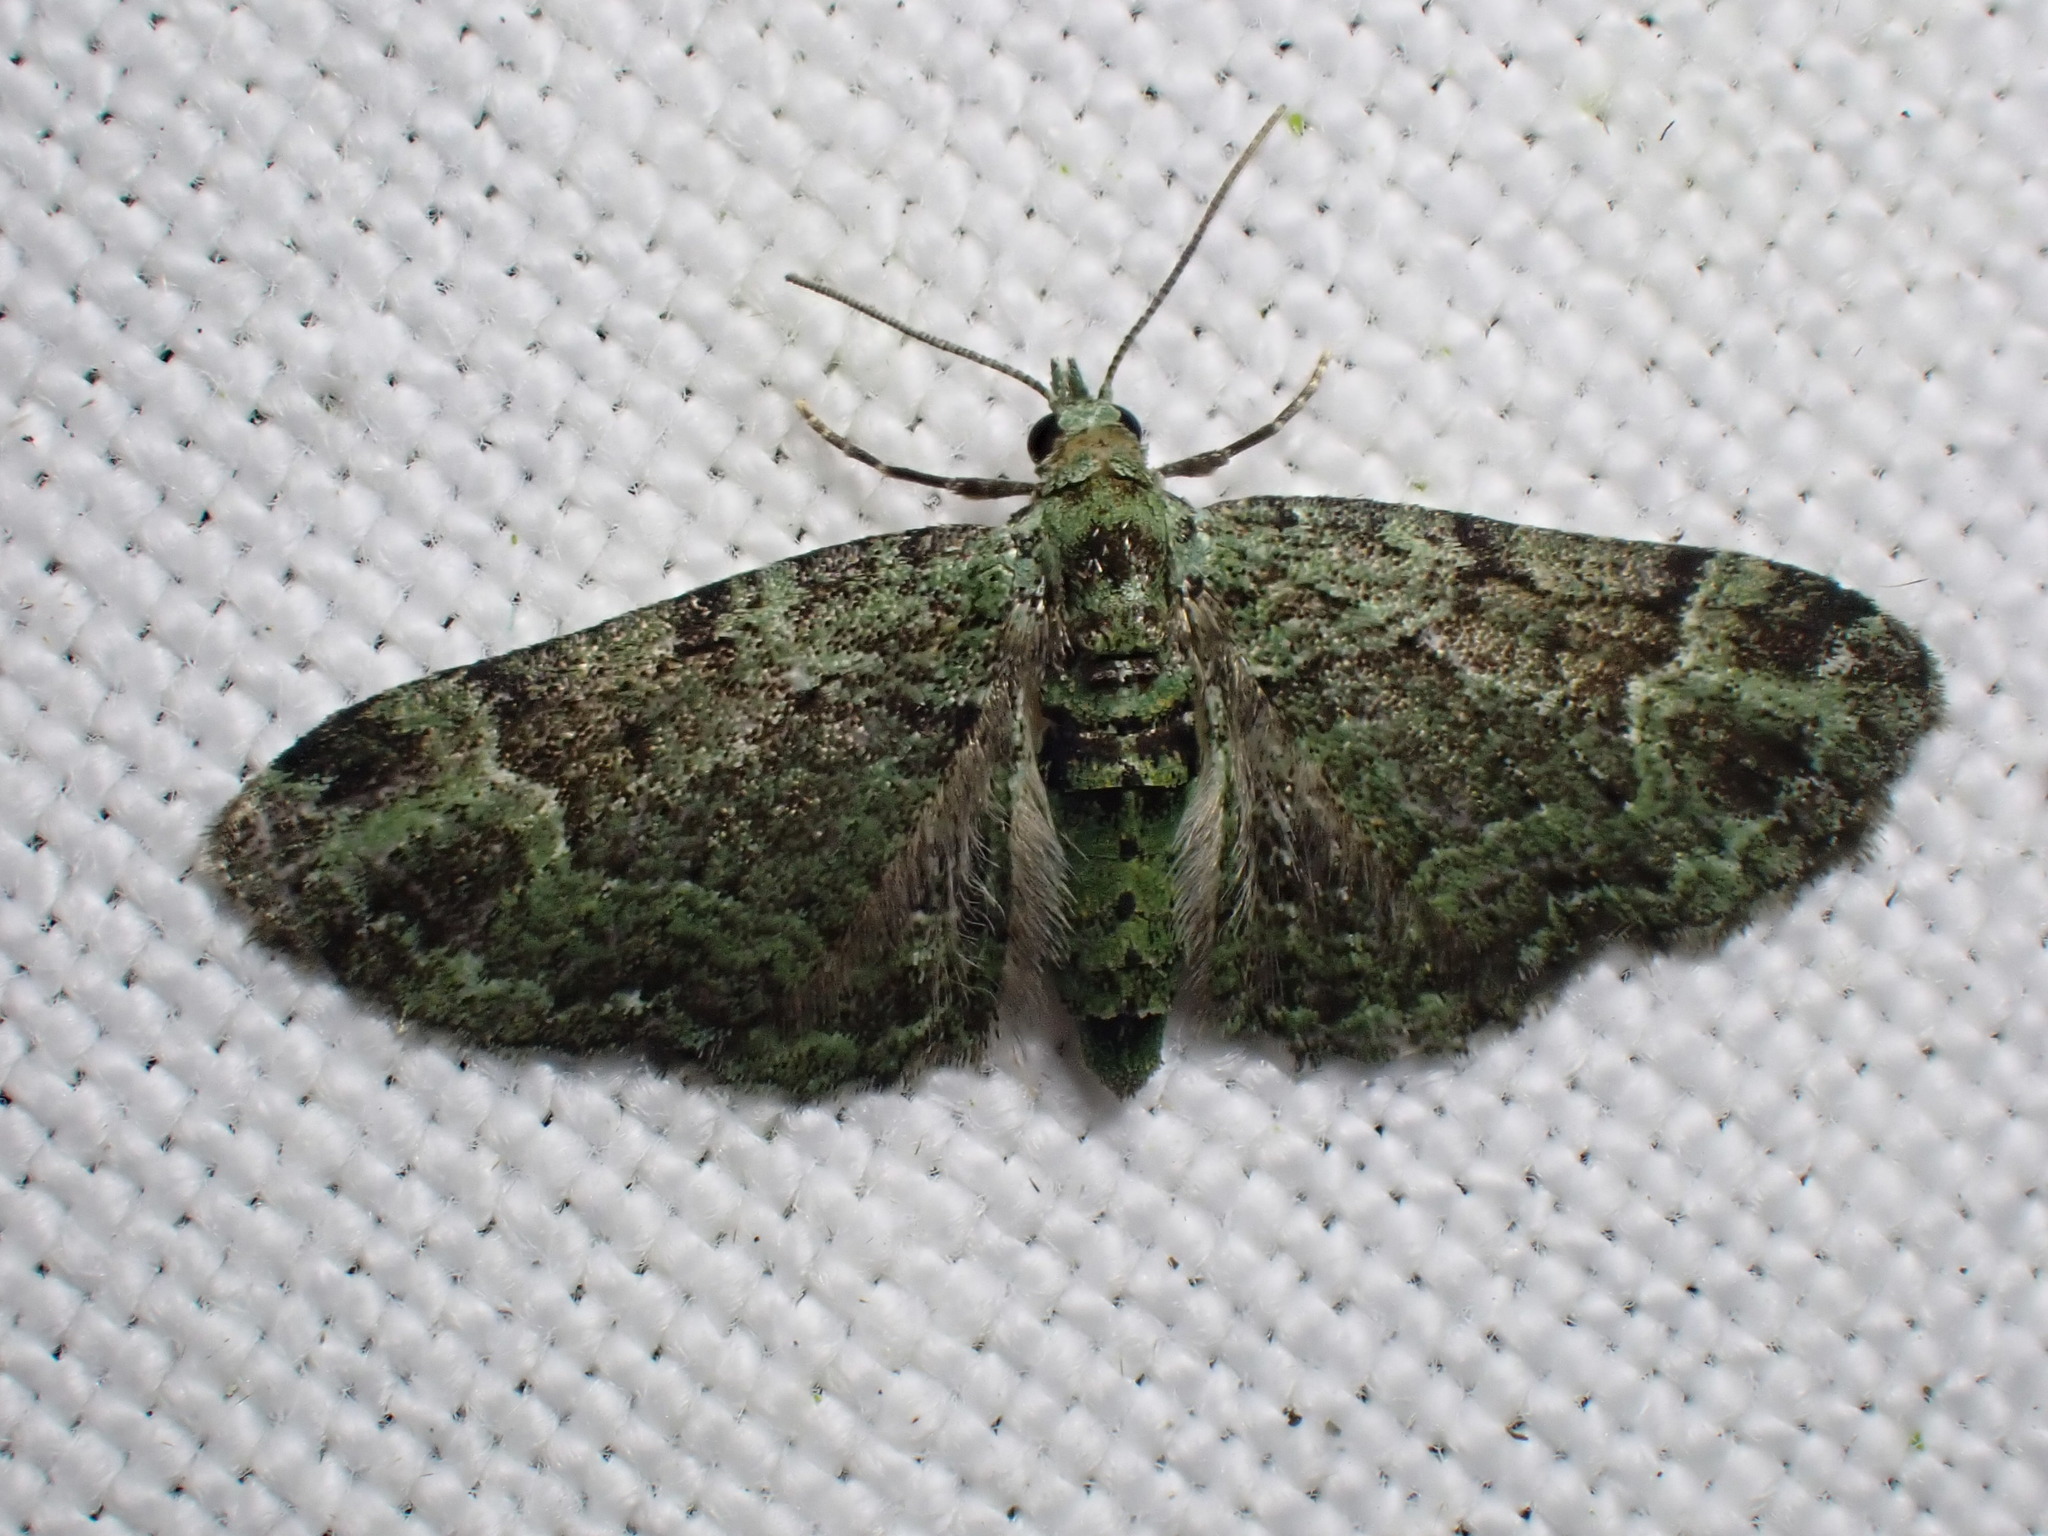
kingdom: Animalia
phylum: Arthropoda
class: Insecta
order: Lepidoptera
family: Geometridae
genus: Pasiphila
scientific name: Pasiphila rectangulata
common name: Green pug
